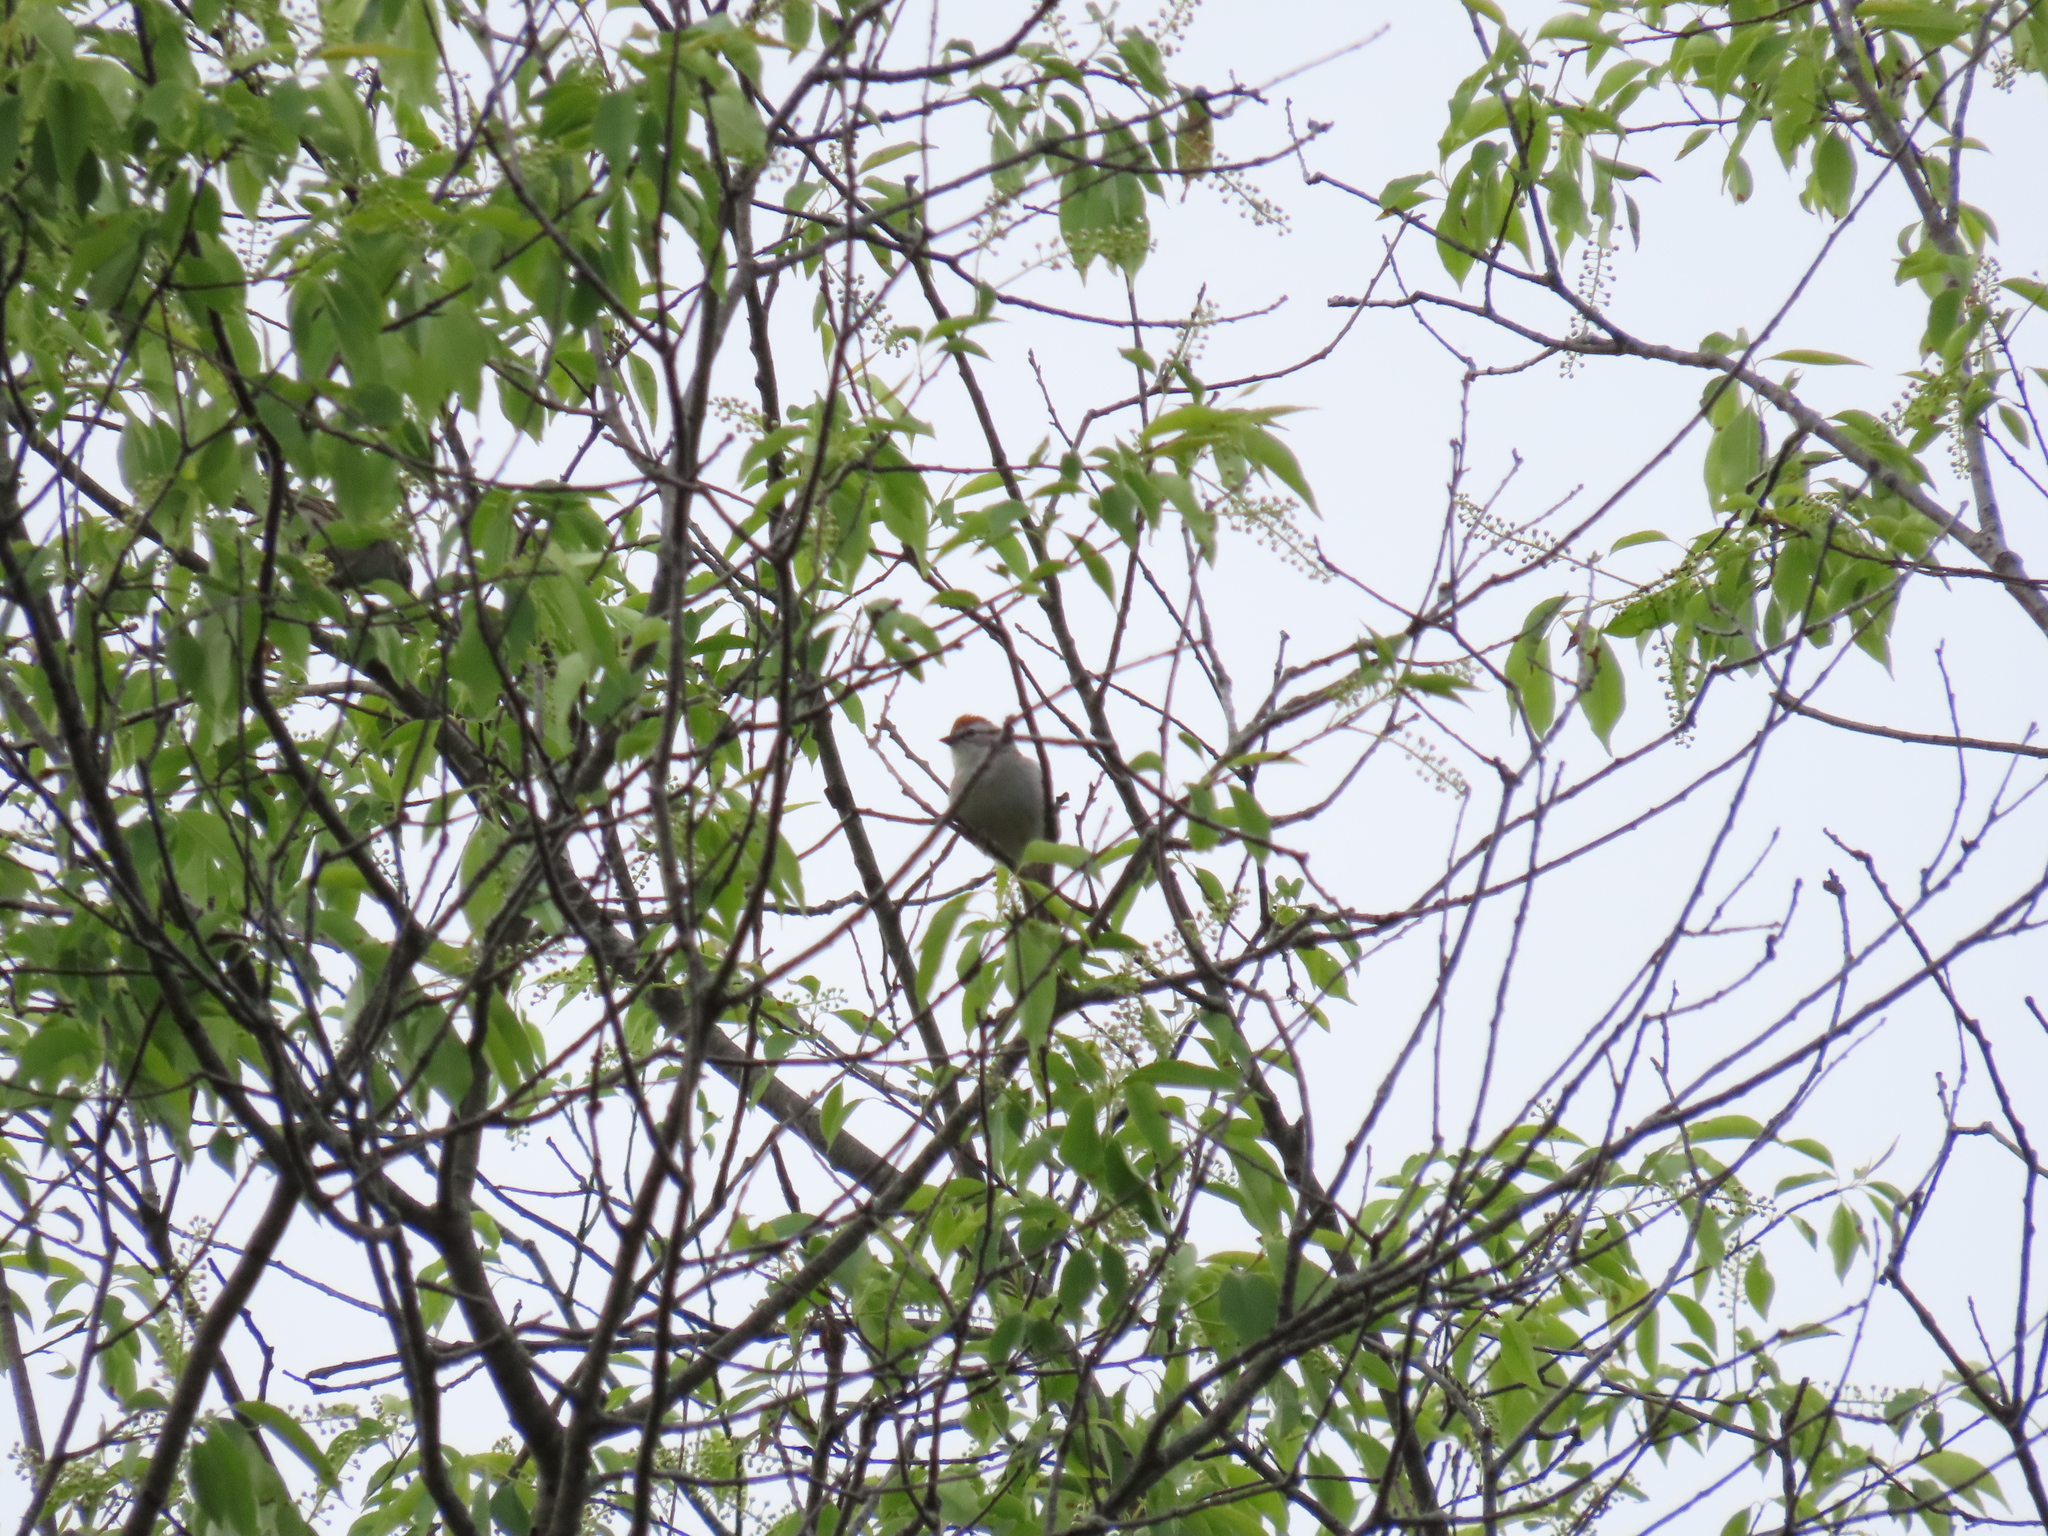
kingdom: Animalia
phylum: Chordata
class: Aves
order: Passeriformes
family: Passerellidae
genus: Spizella
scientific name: Spizella passerina
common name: Chipping sparrow
